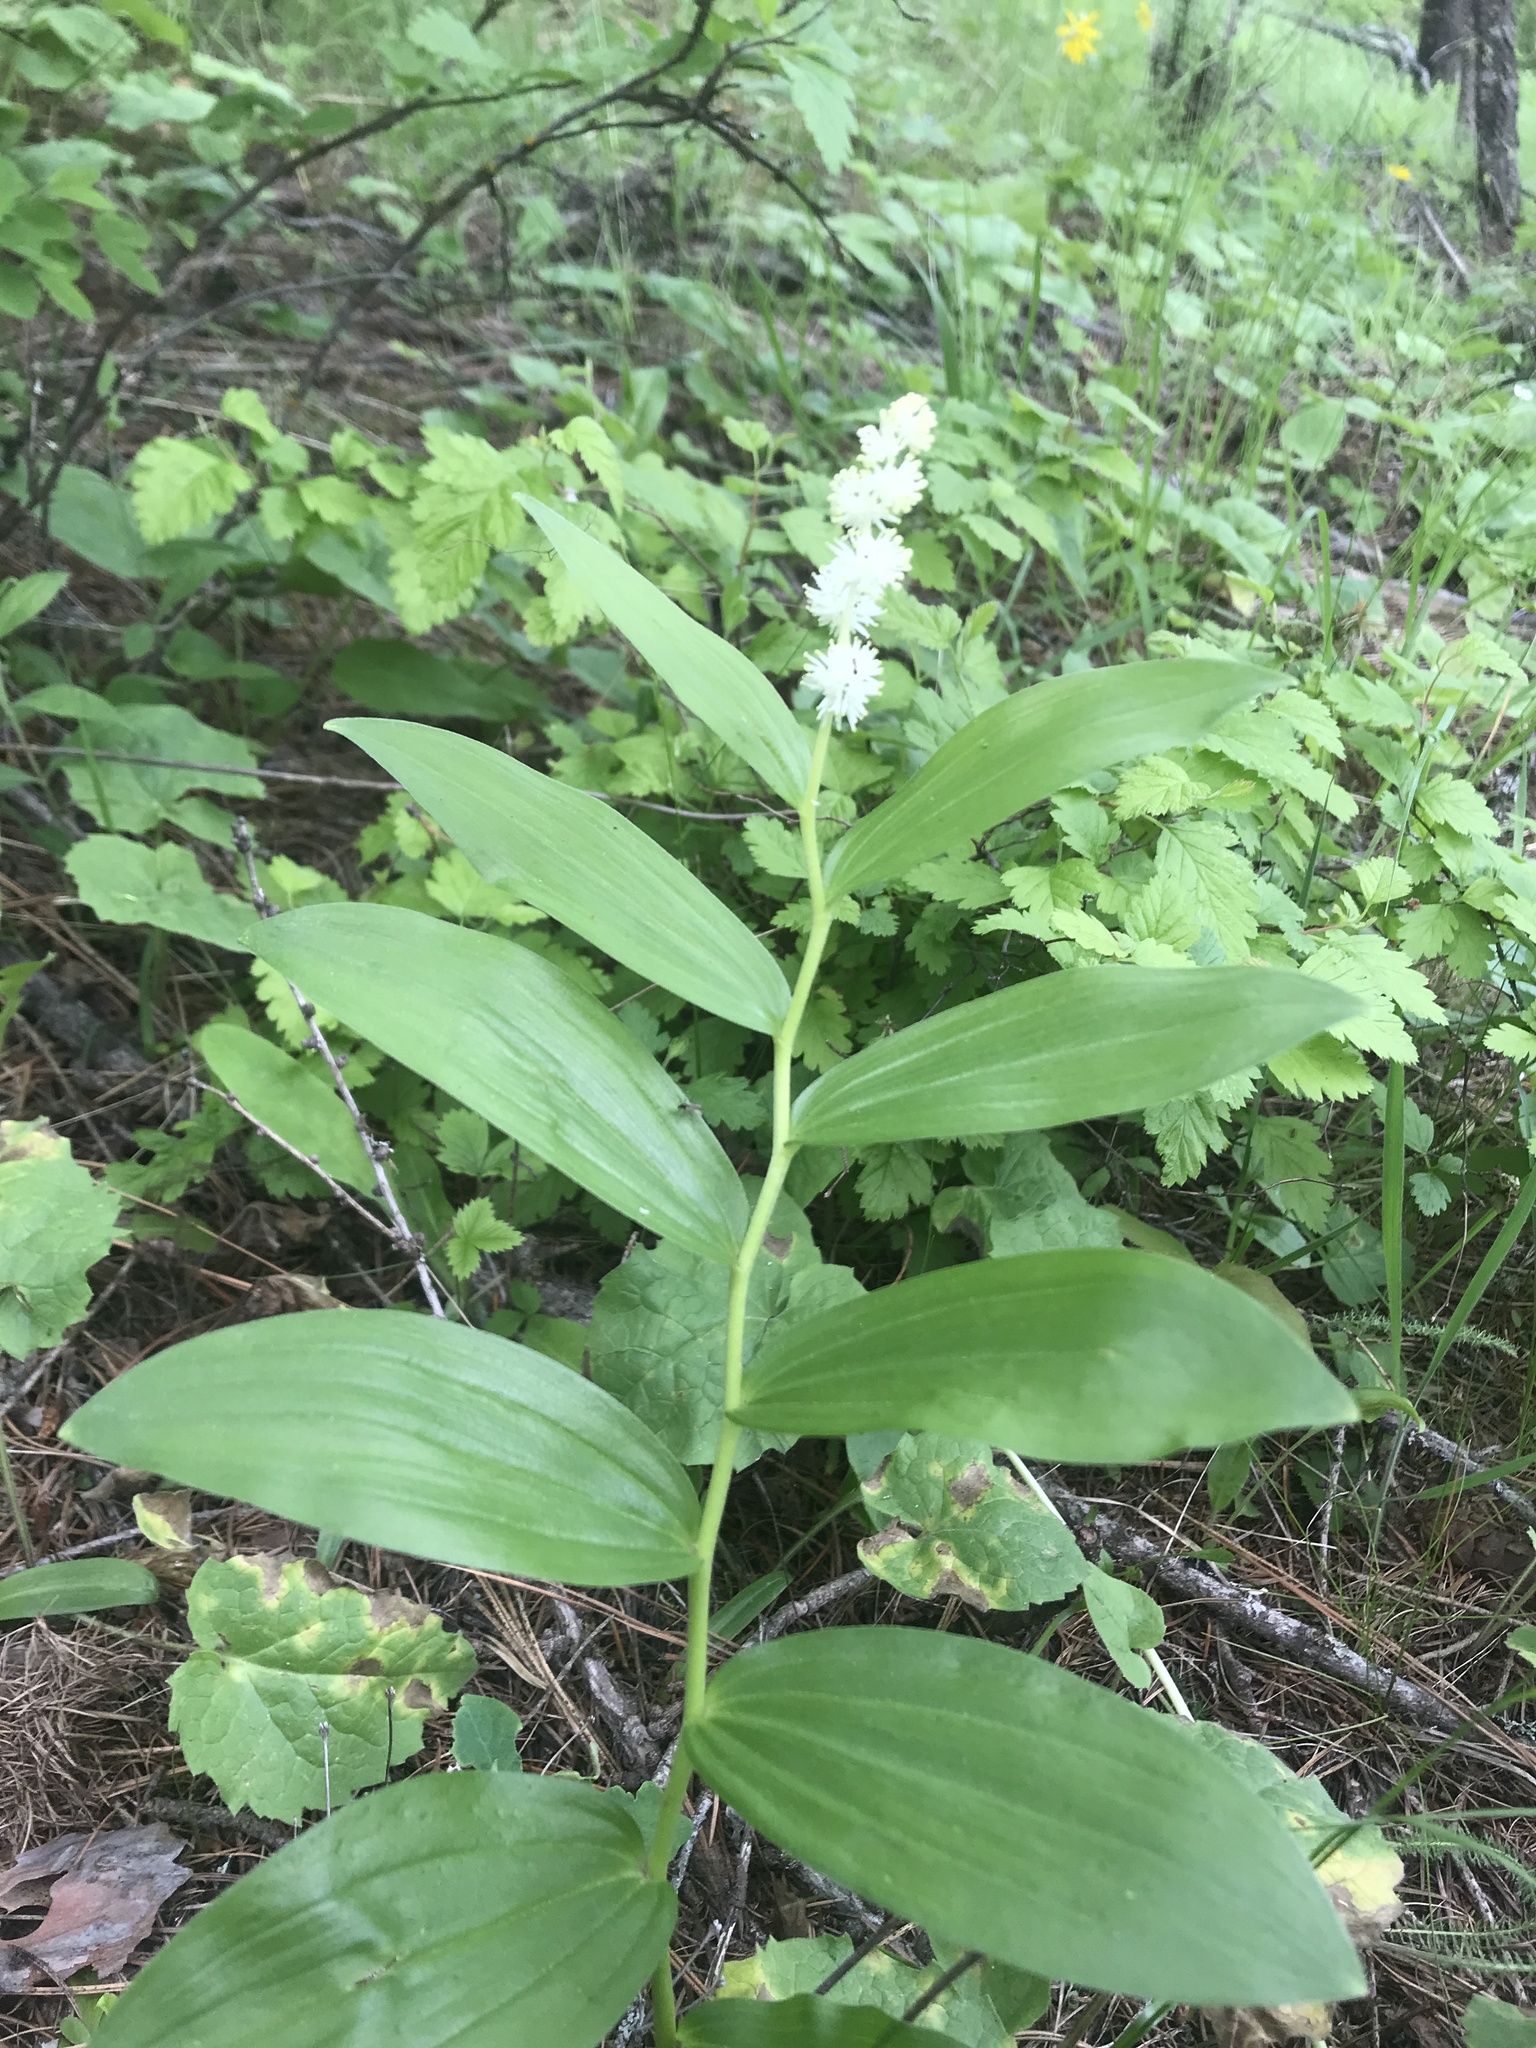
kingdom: Plantae
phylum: Tracheophyta
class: Liliopsida
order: Asparagales
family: Asparagaceae
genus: Maianthemum
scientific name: Maianthemum racemosum
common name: False spikenard
